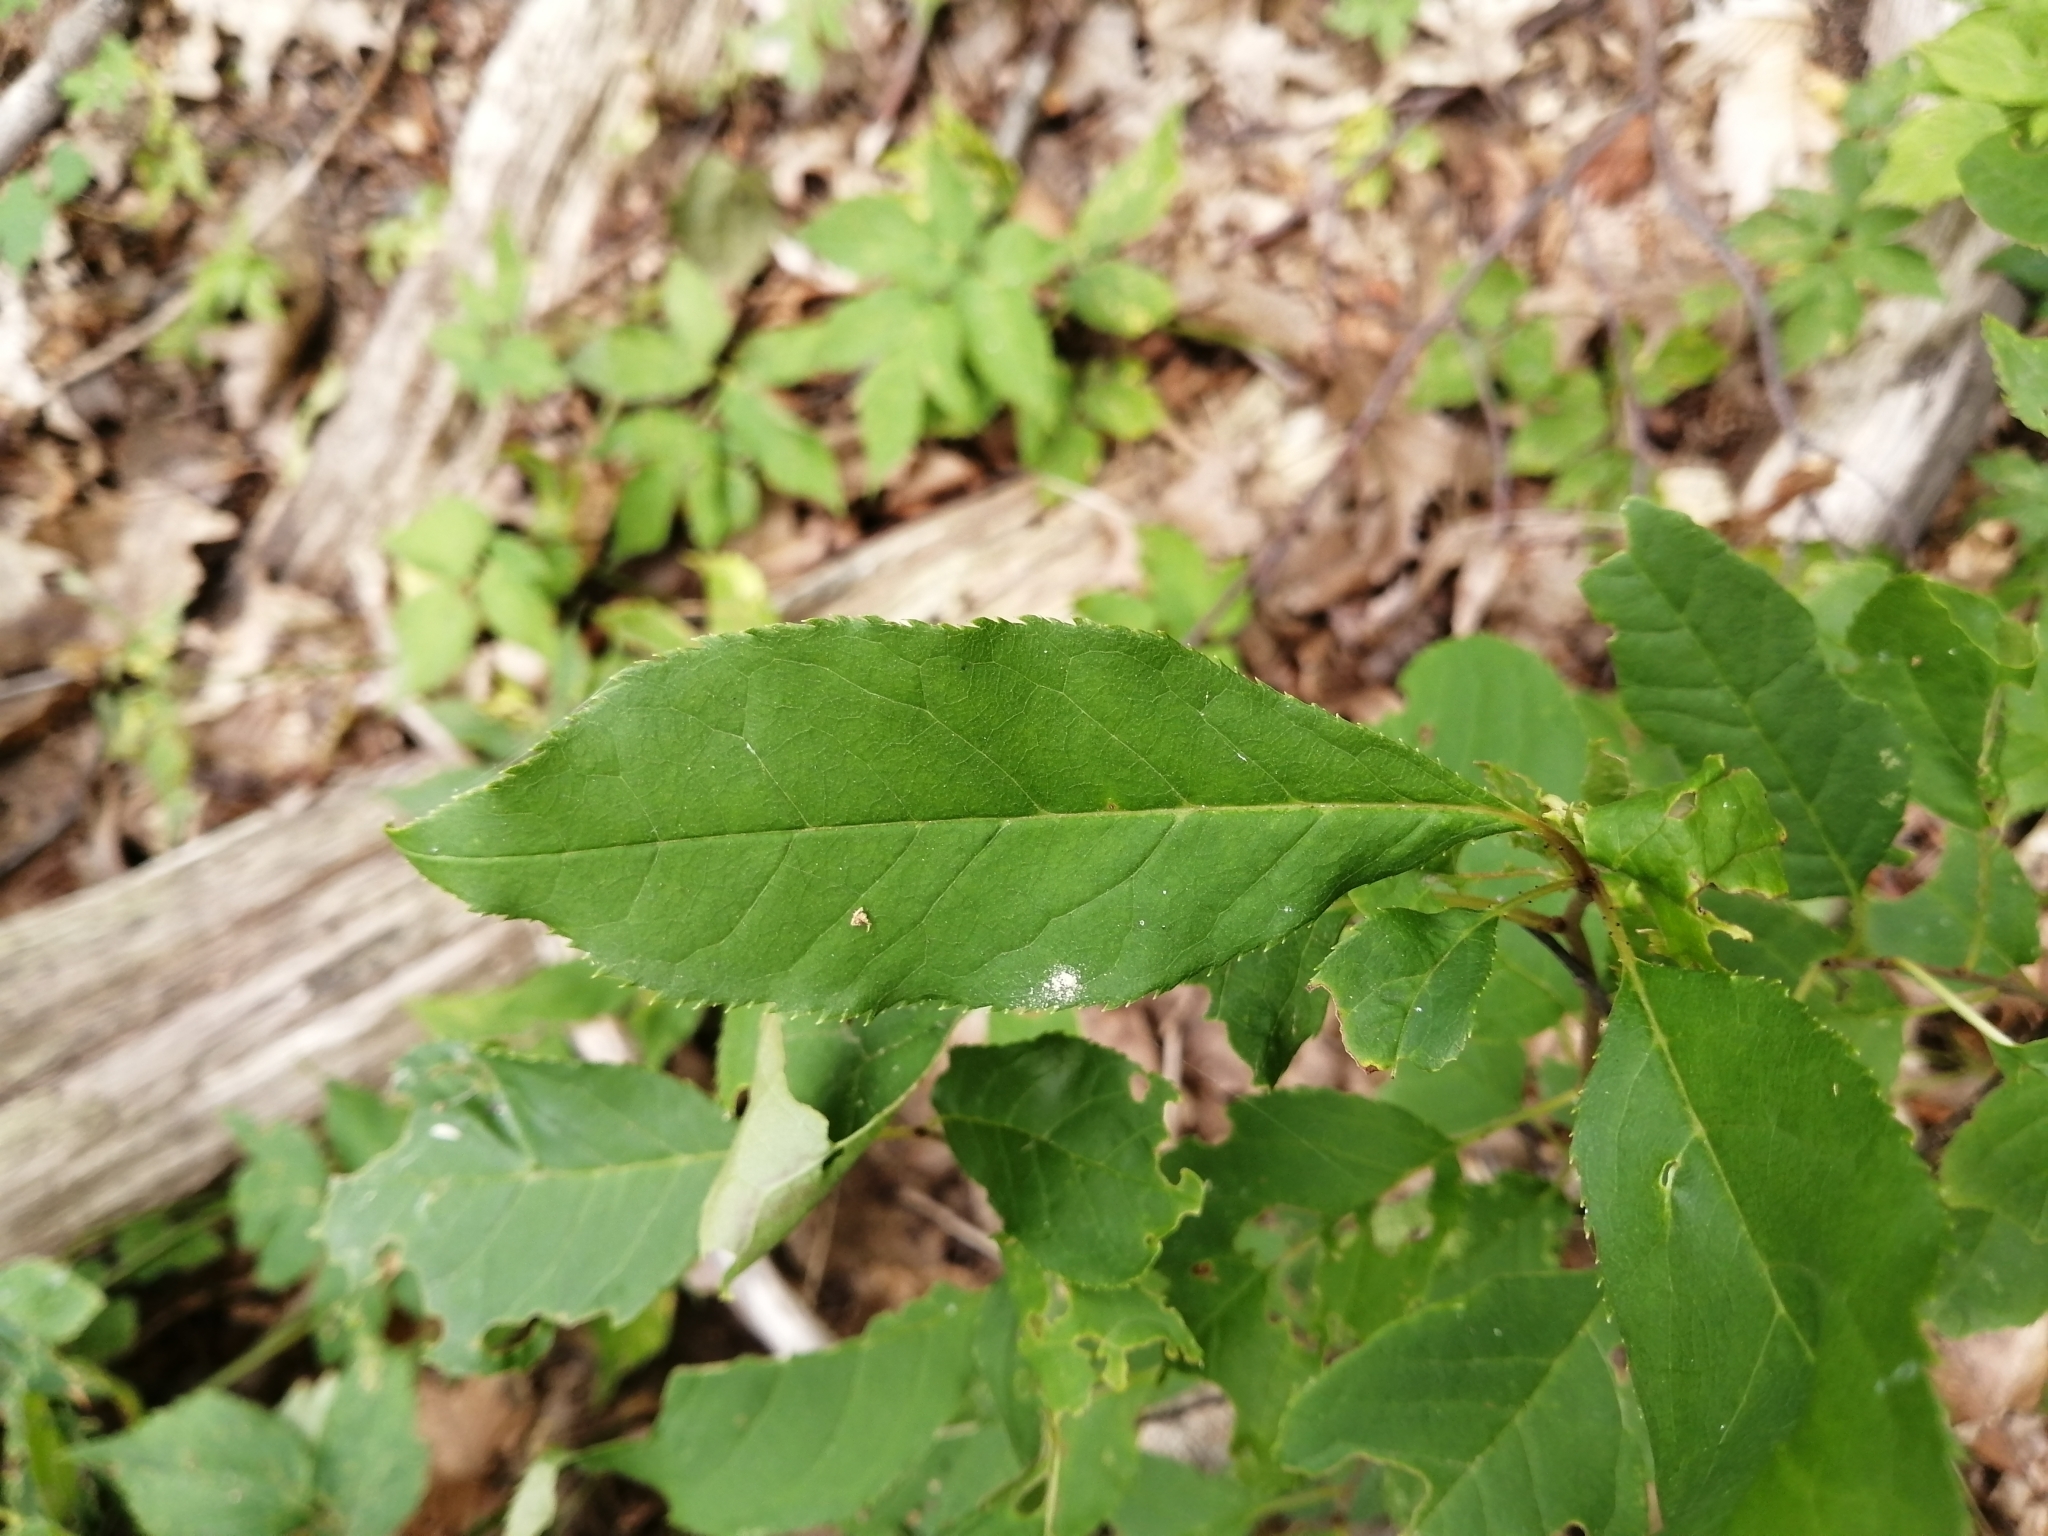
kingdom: Plantae
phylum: Tracheophyta
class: Magnoliopsida
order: Rosales
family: Rosaceae
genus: Prunus
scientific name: Prunus serotina
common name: Black cherry
